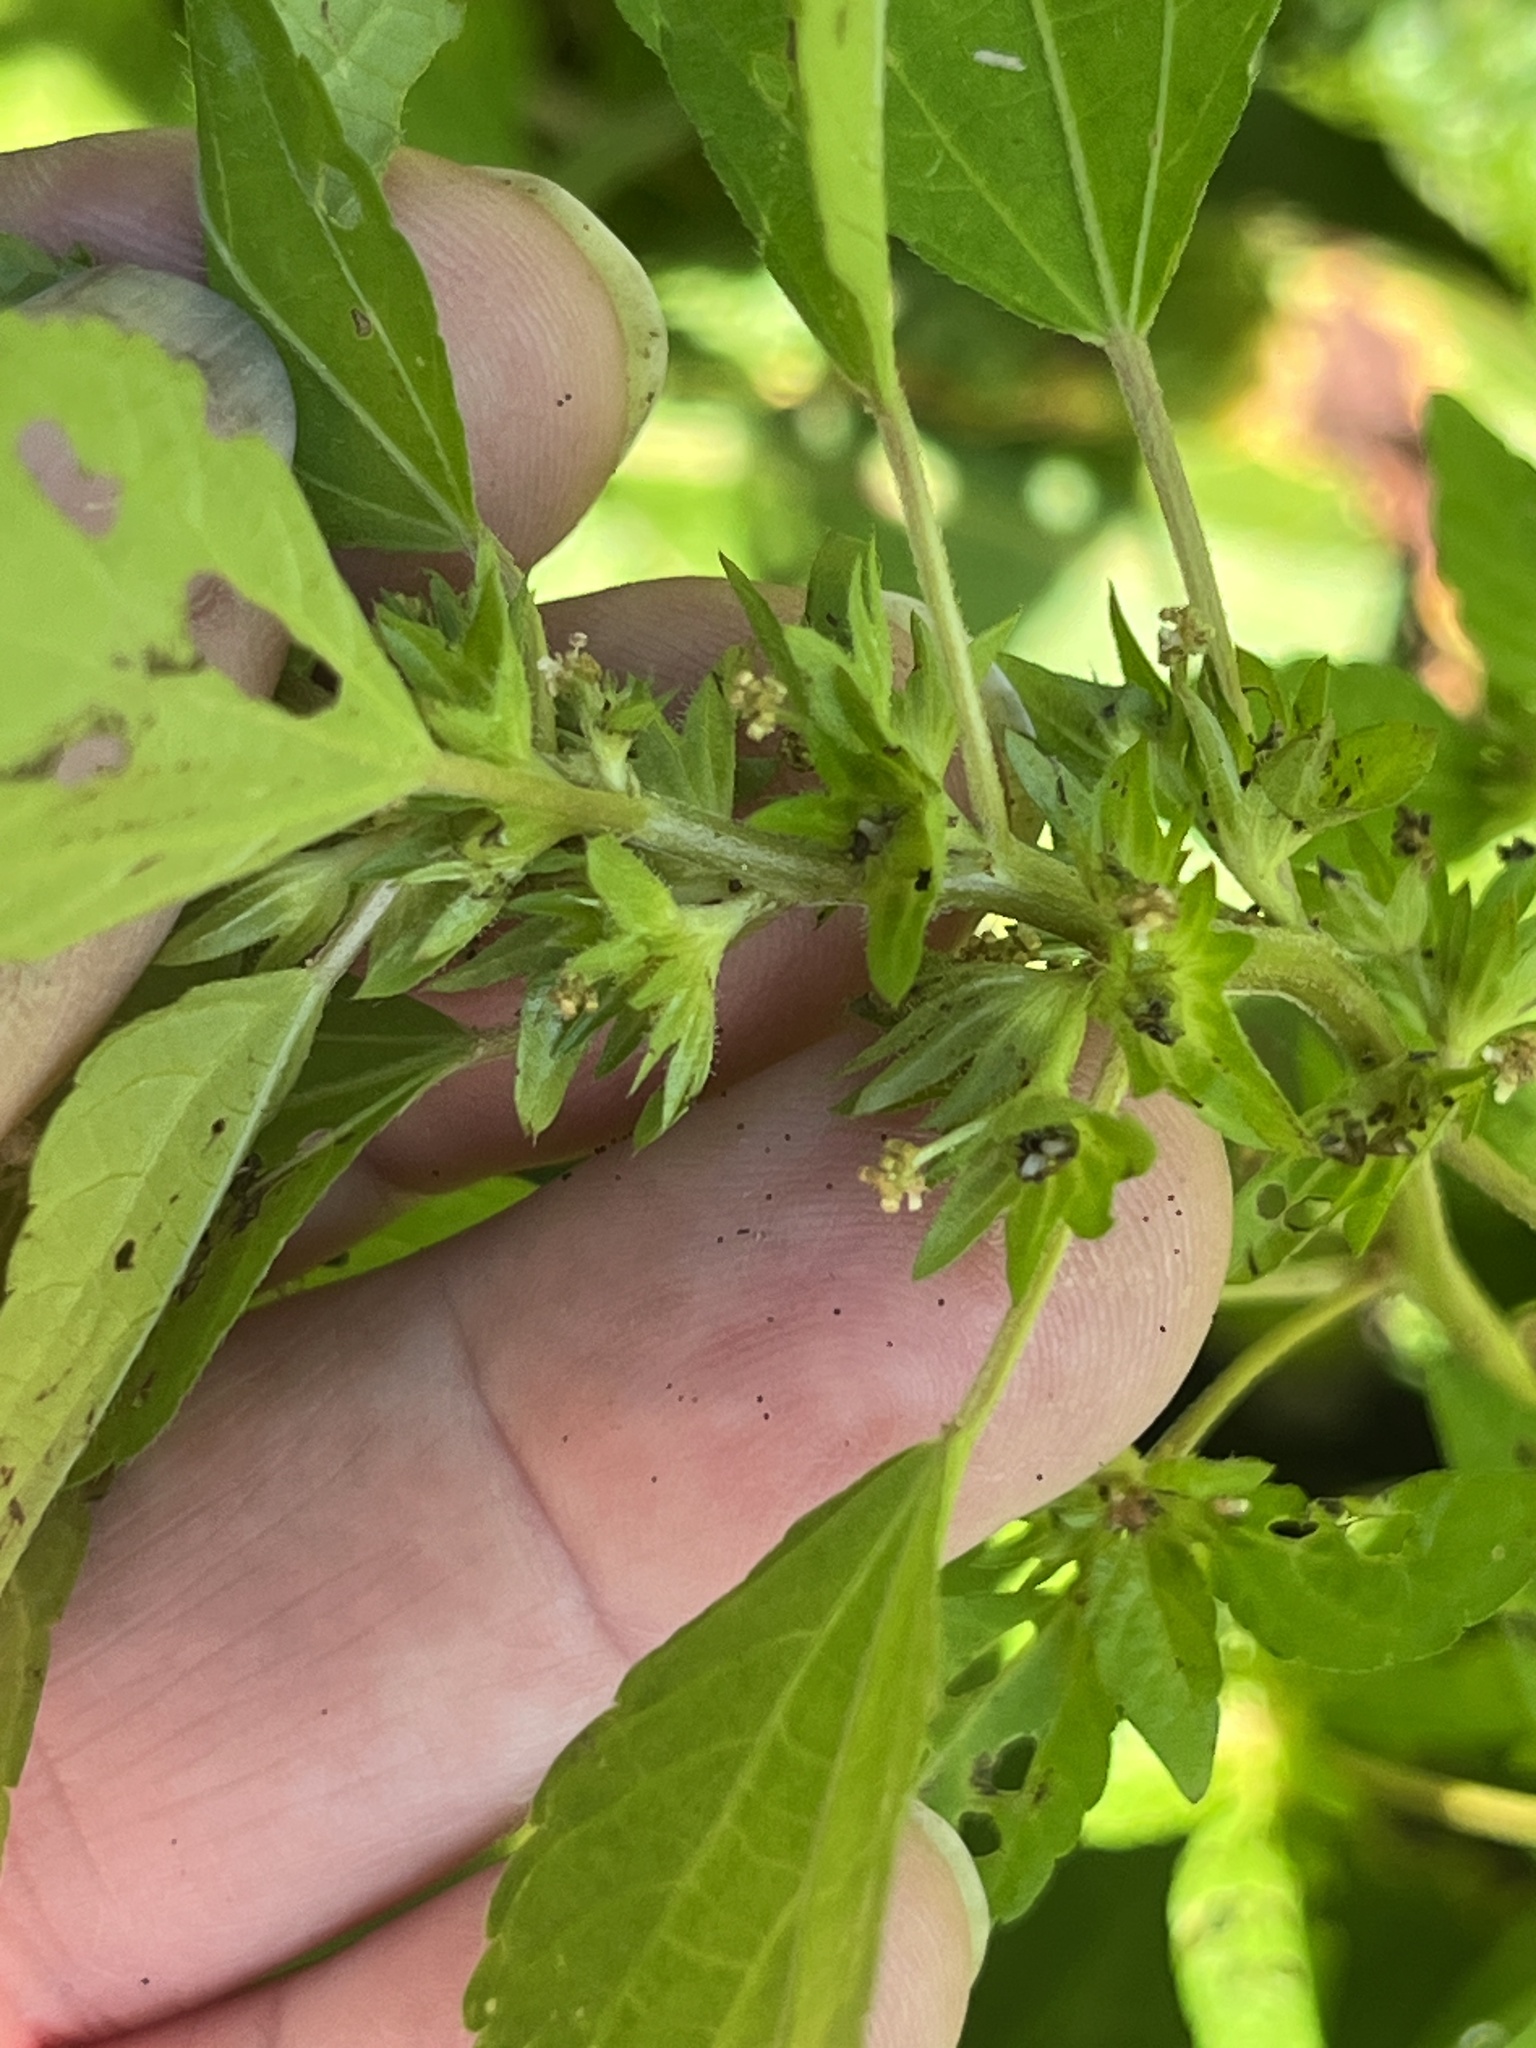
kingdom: Plantae
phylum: Tracheophyta
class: Magnoliopsida
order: Malpighiales
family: Euphorbiaceae
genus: Acalypha
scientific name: Acalypha rhomboidea
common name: Rhombic copperleaf
